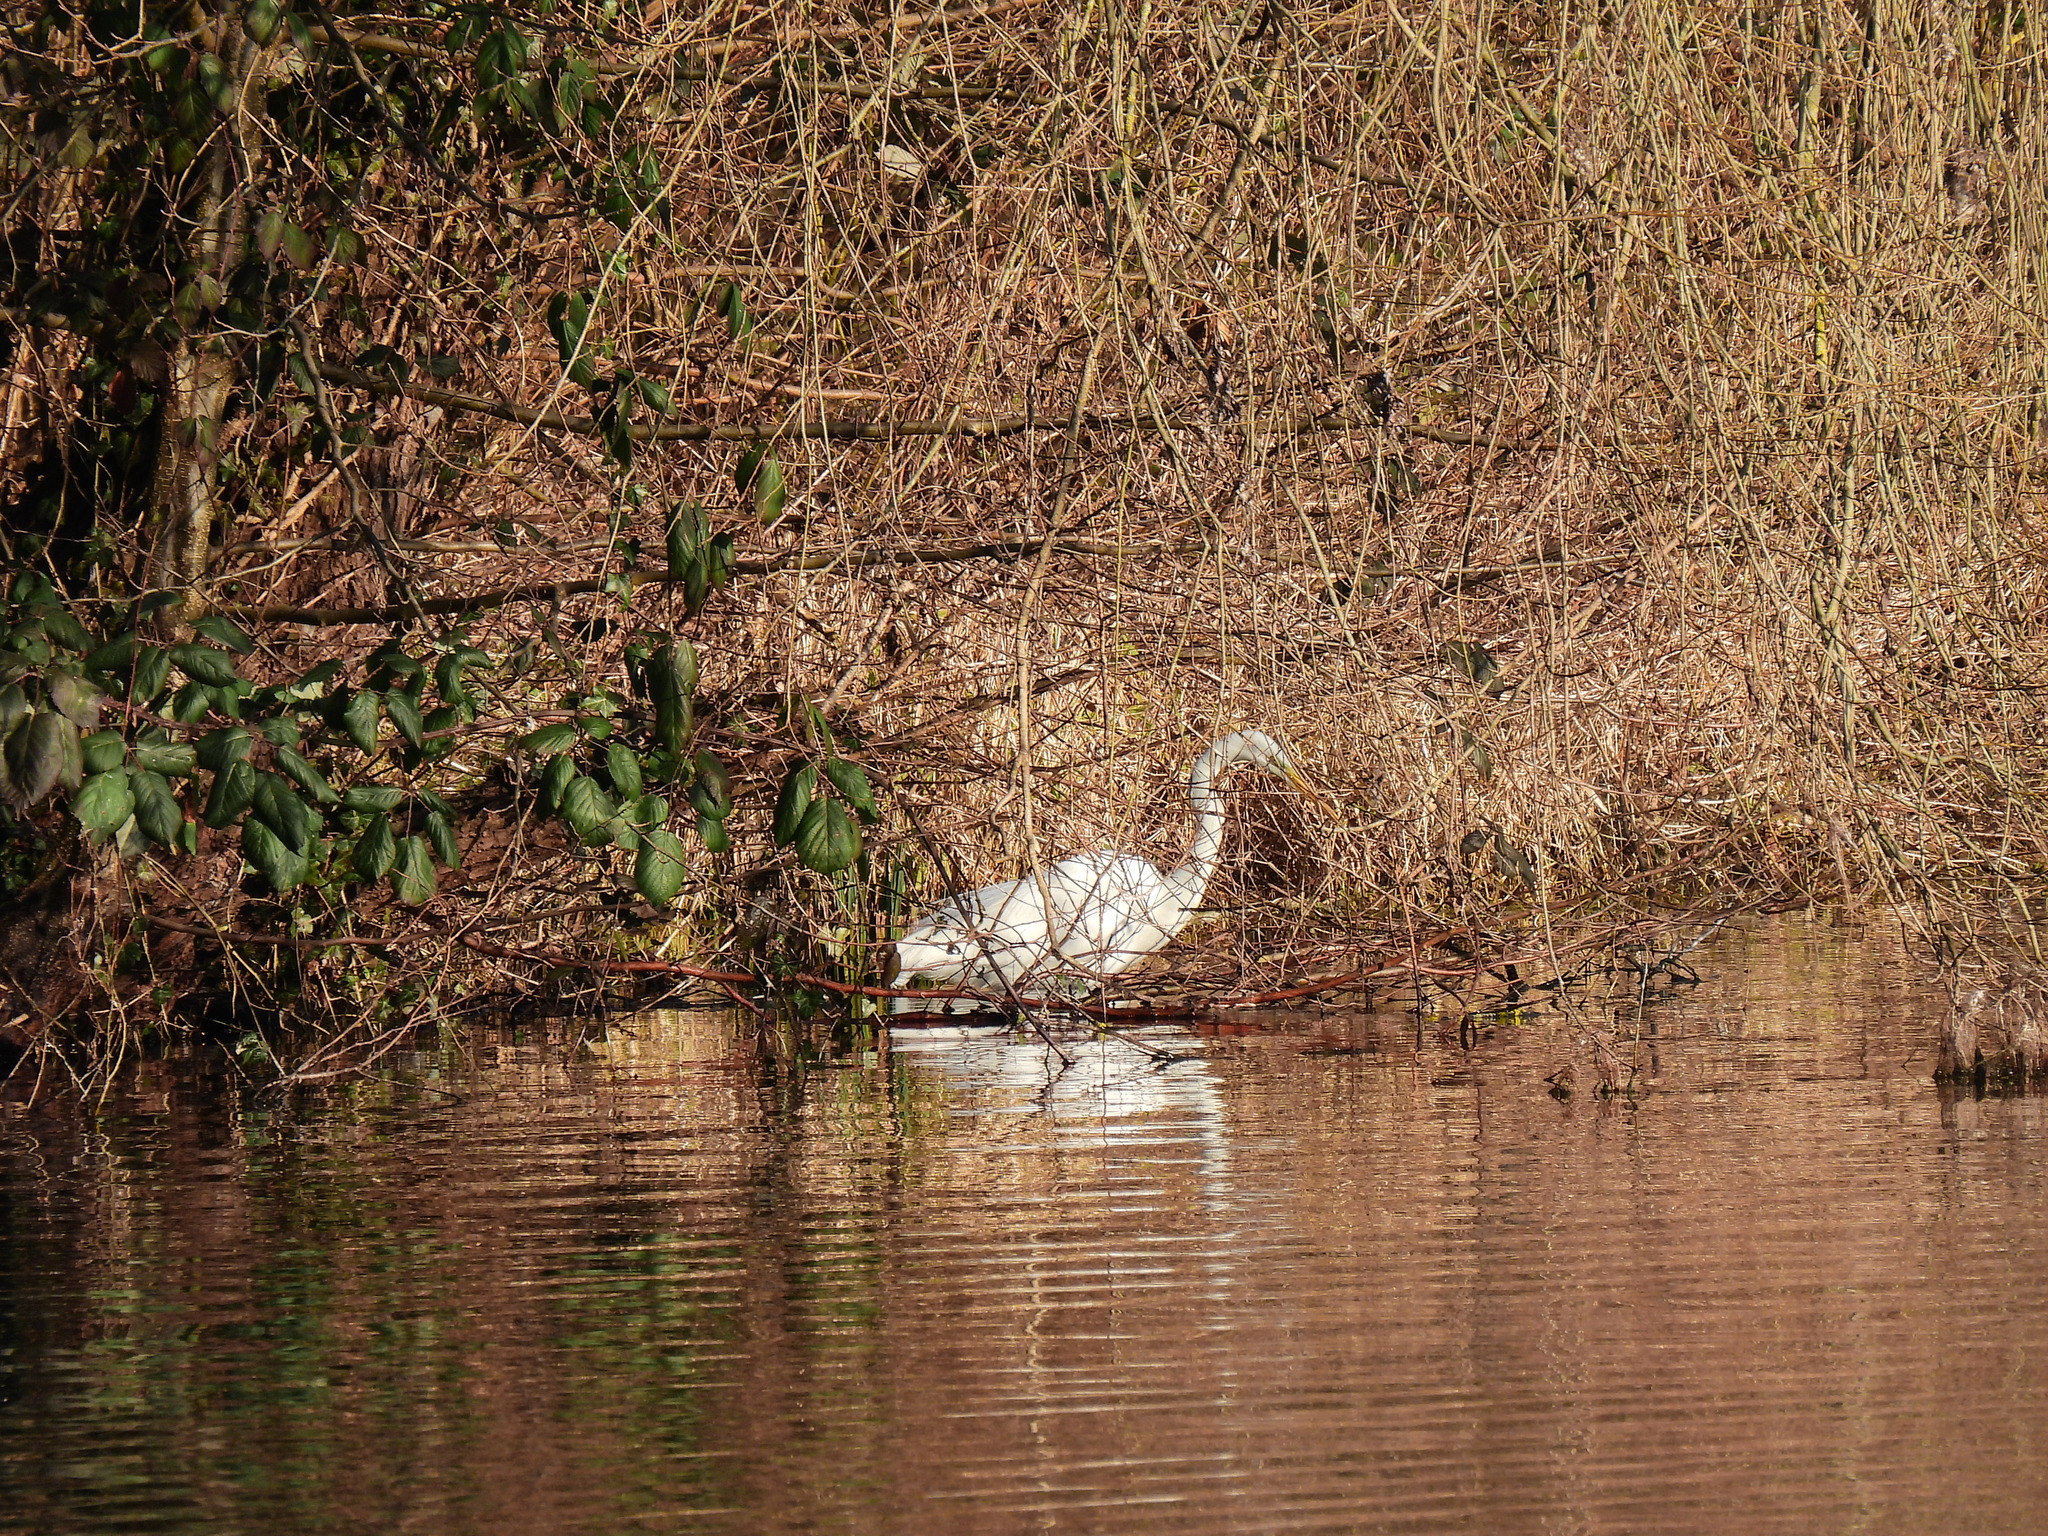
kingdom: Animalia
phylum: Chordata
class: Aves
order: Pelecaniformes
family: Ardeidae
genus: Ardea
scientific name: Ardea alba
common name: Great egret
